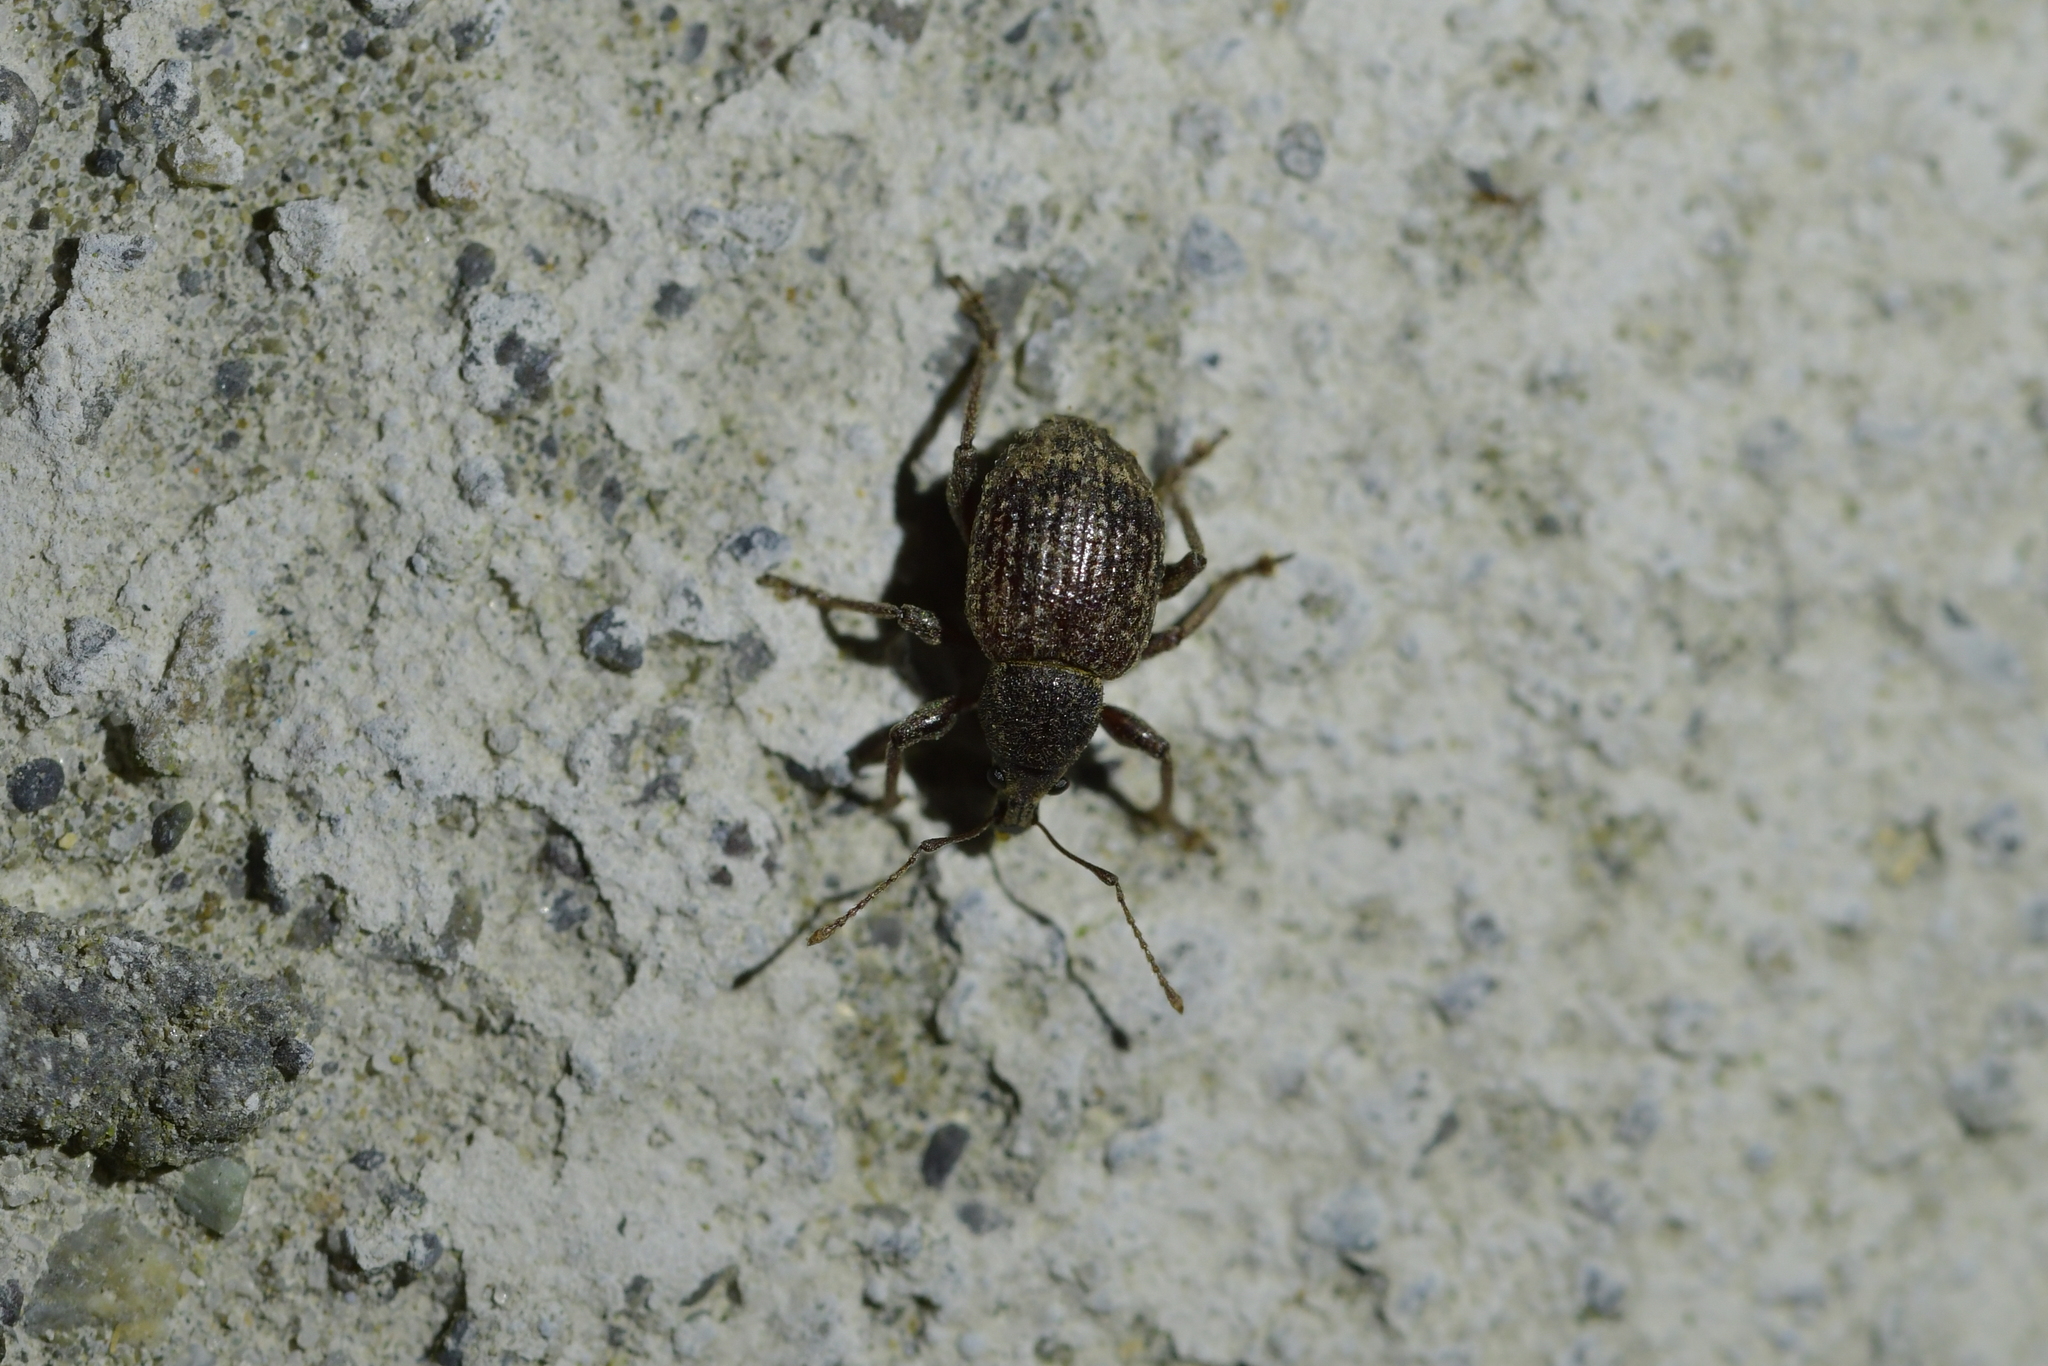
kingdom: Animalia
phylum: Arthropoda
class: Insecta
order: Coleoptera
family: Curculionidae
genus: Phlyctinus
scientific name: Phlyctinus callosus
